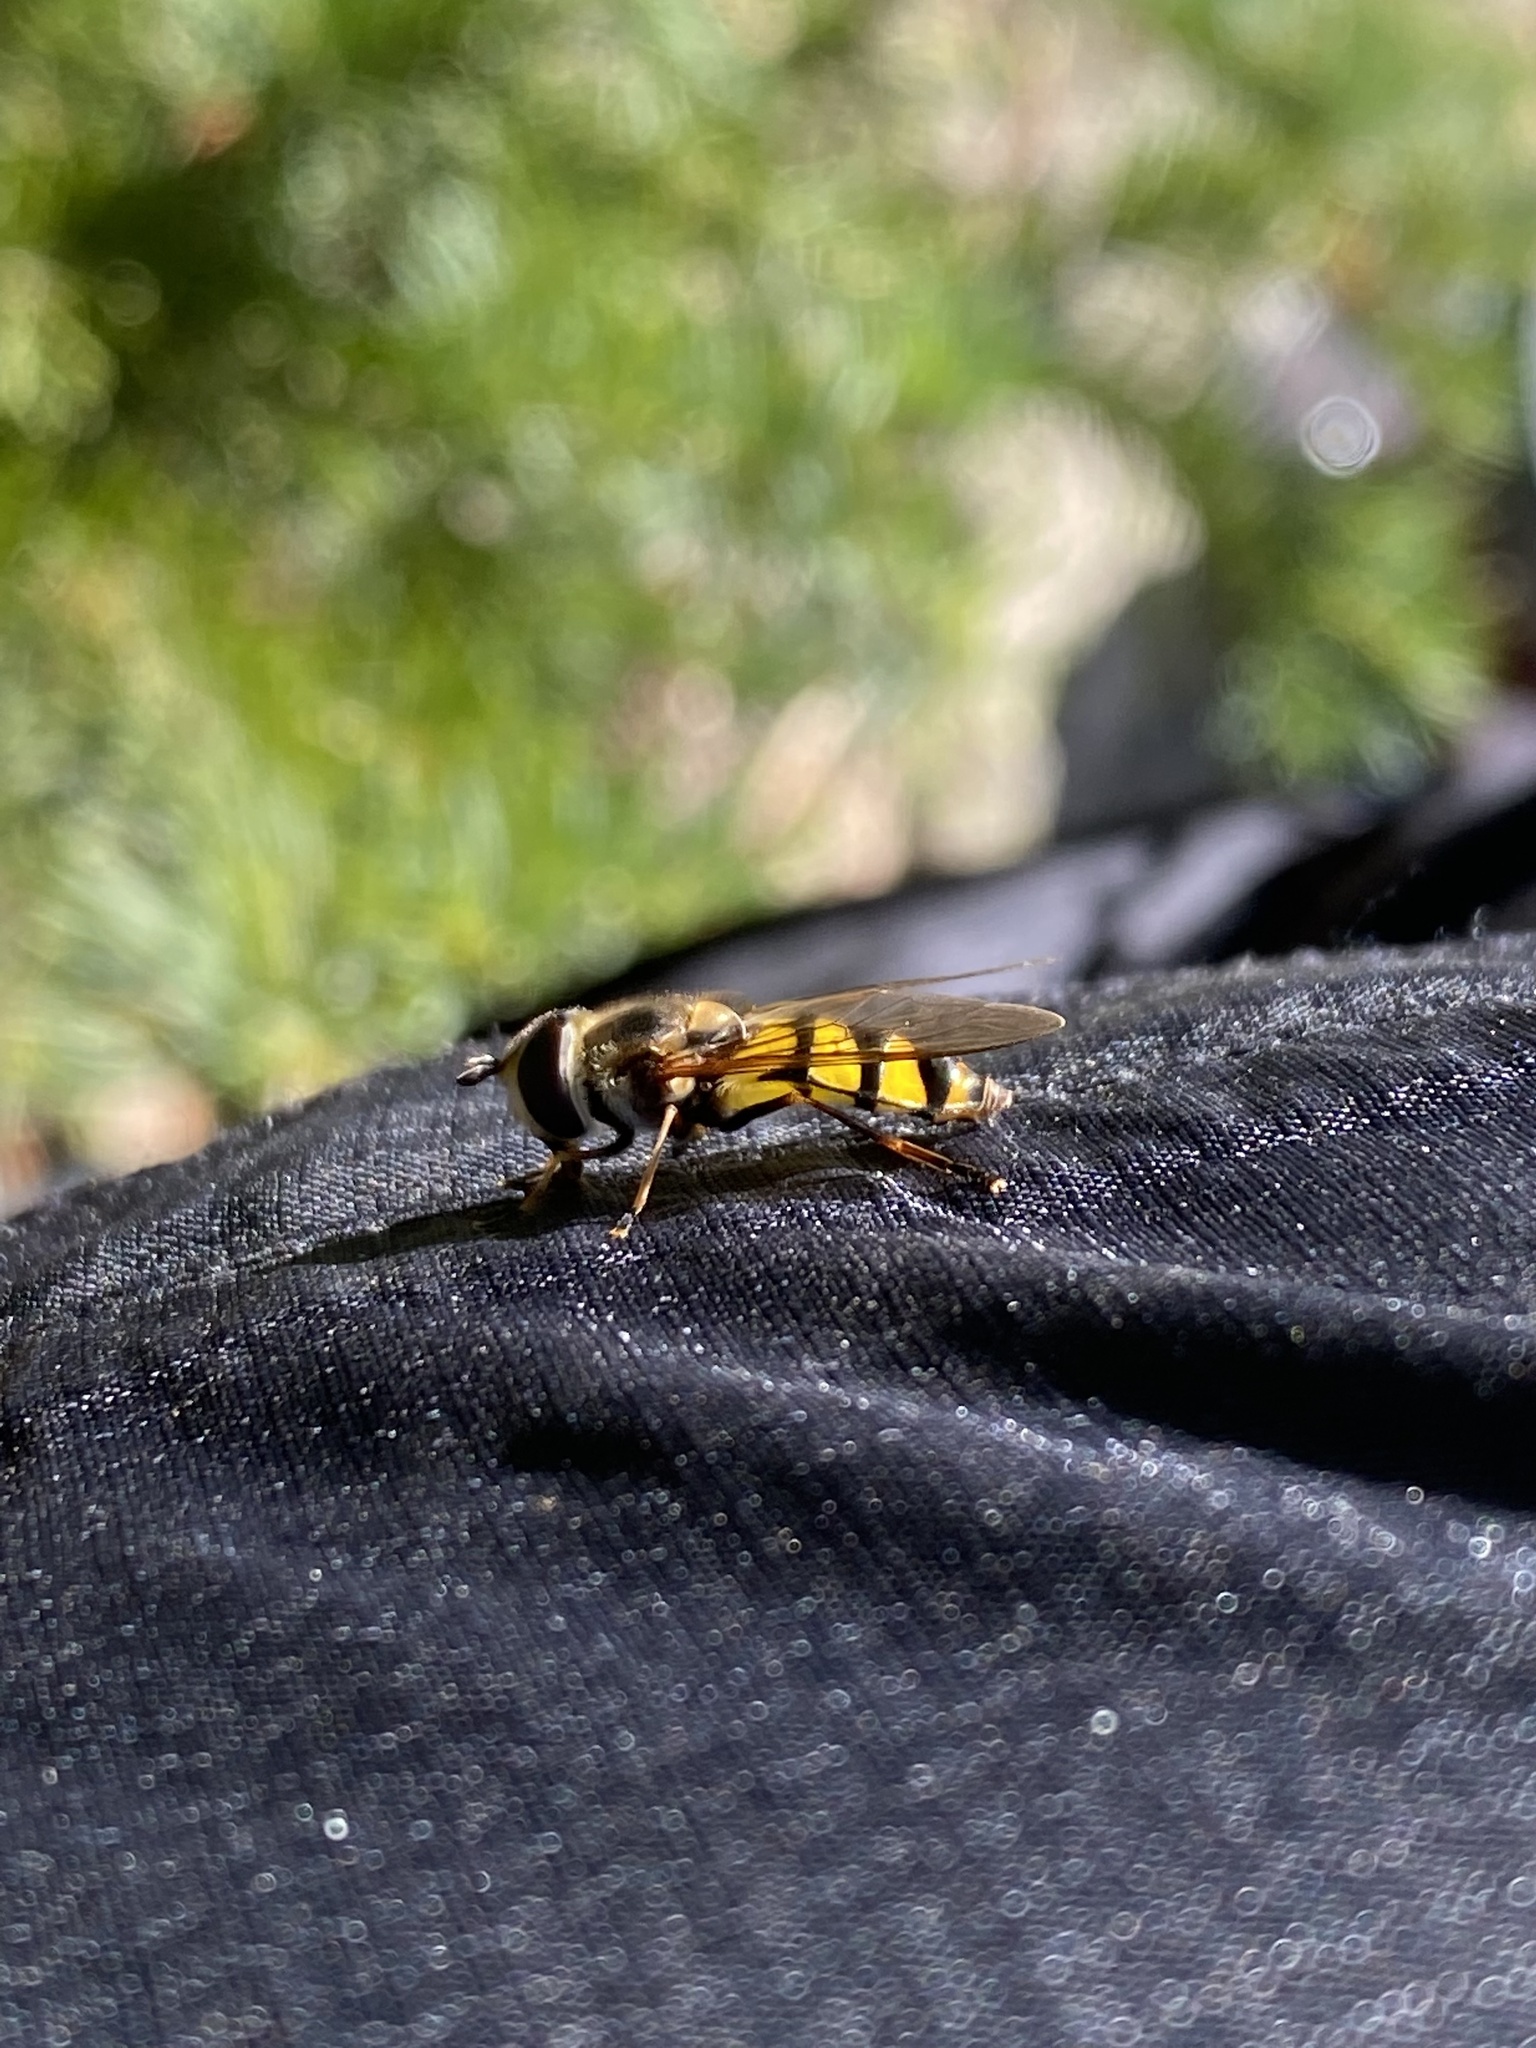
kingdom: Animalia
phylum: Arthropoda
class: Insecta
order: Diptera
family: Syrphidae
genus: Didea
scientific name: Didea fuscipes
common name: Undivided lucent
